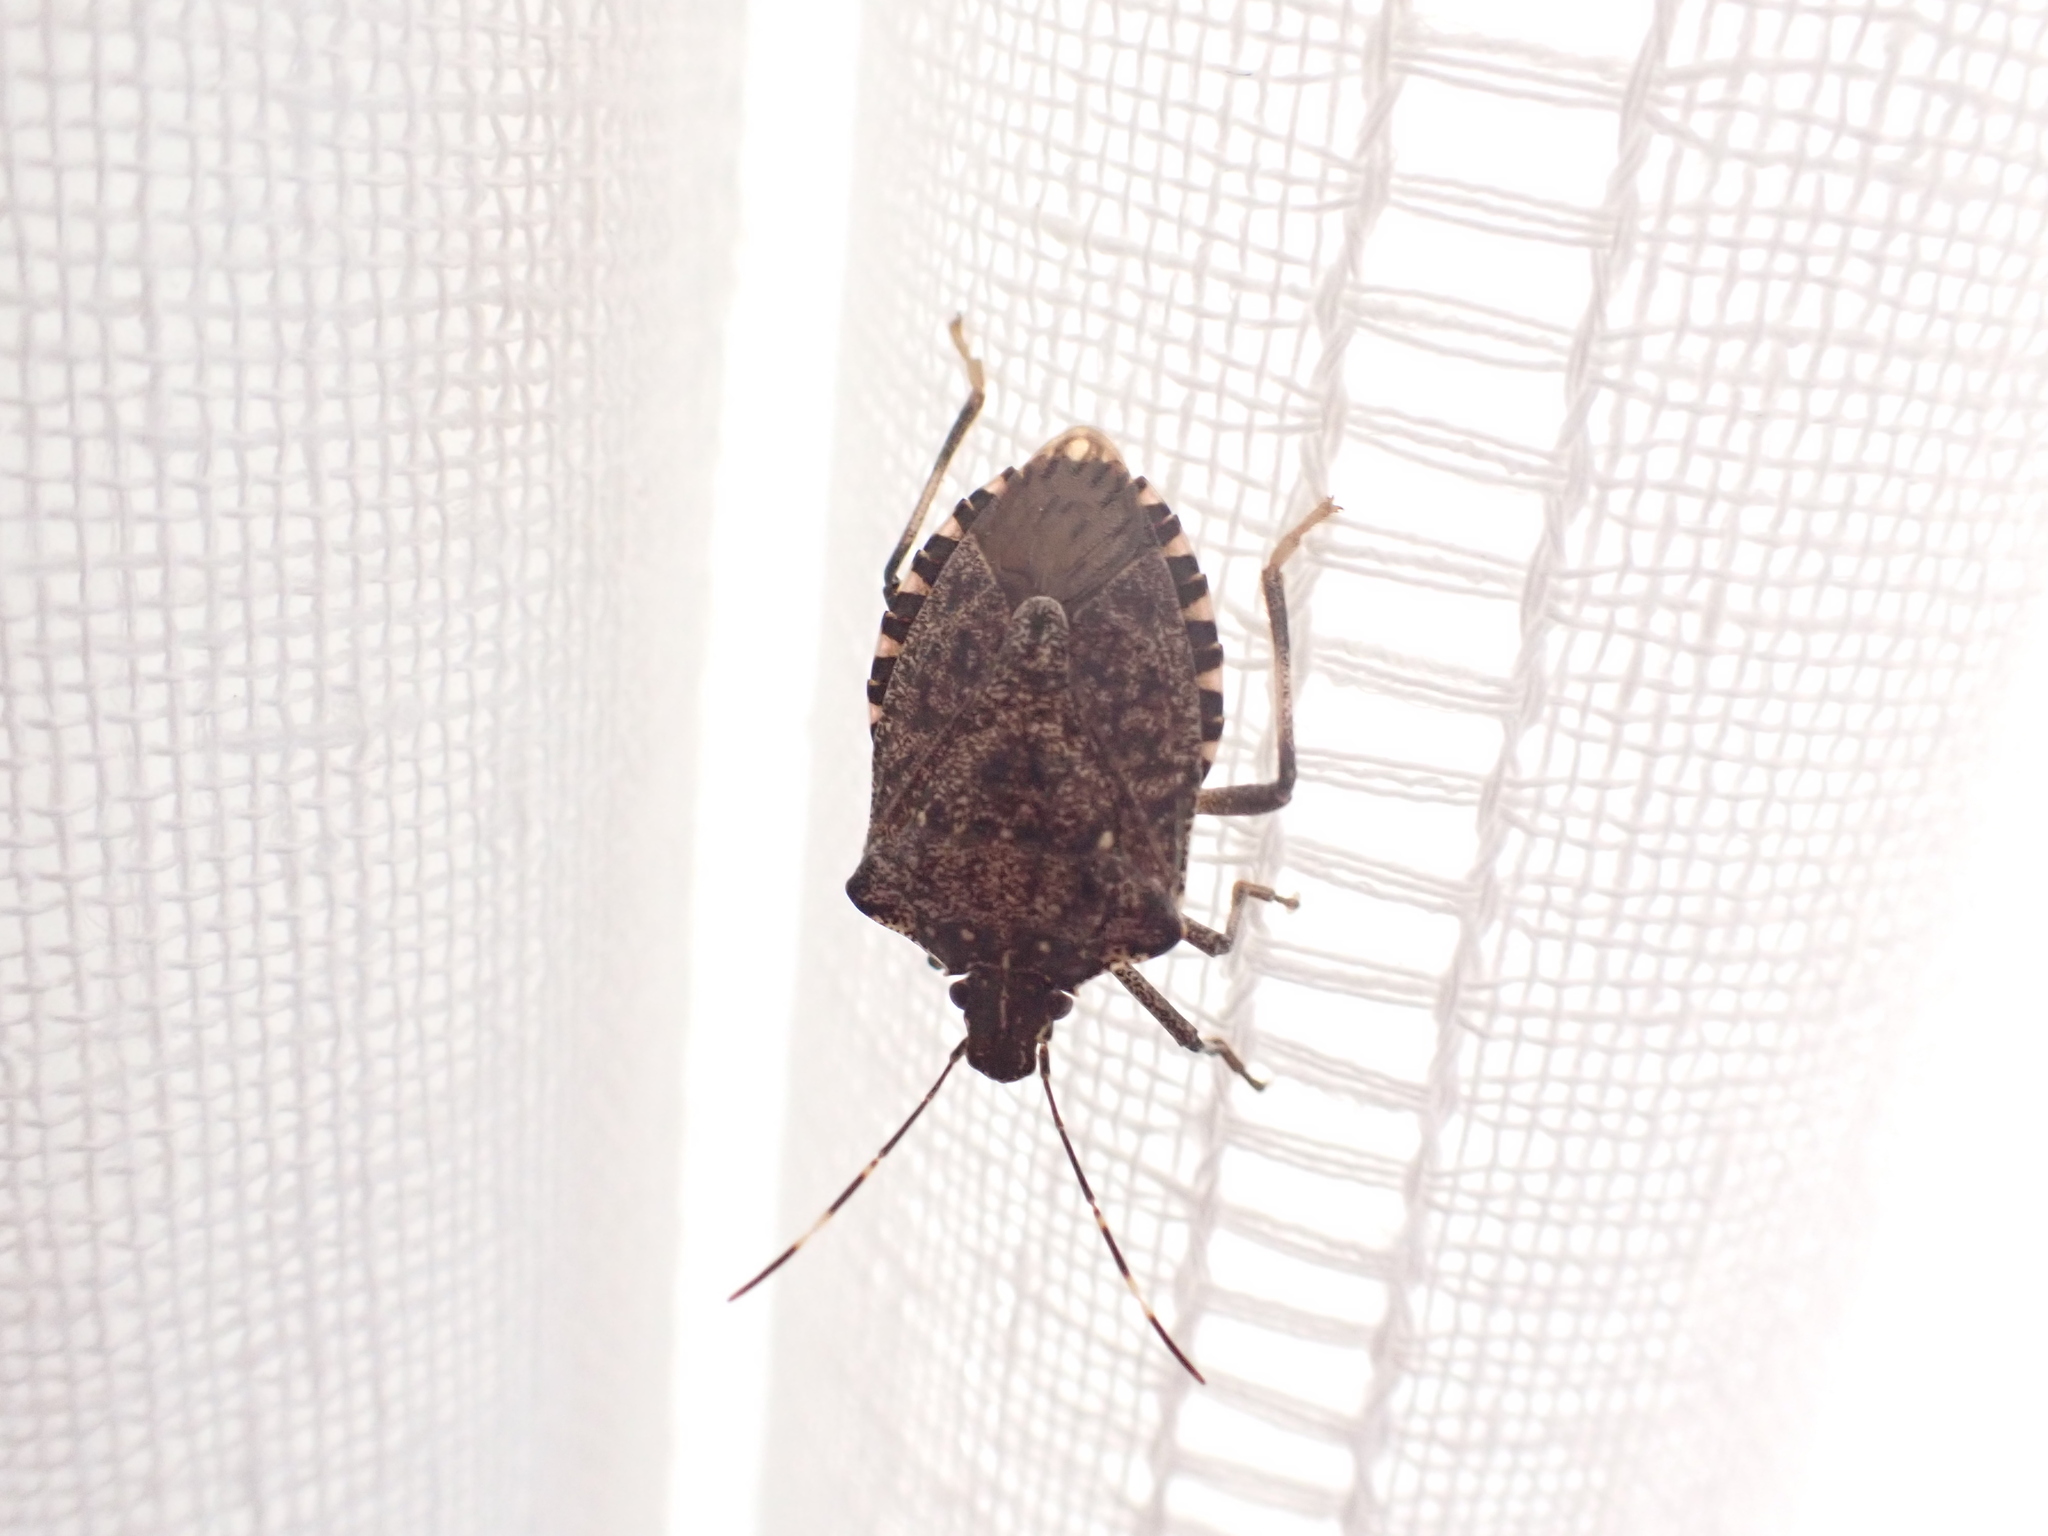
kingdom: Animalia
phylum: Arthropoda
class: Insecta
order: Hemiptera
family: Pentatomidae
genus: Halyomorpha
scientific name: Halyomorpha halys
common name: Brown marmorated stink bug
